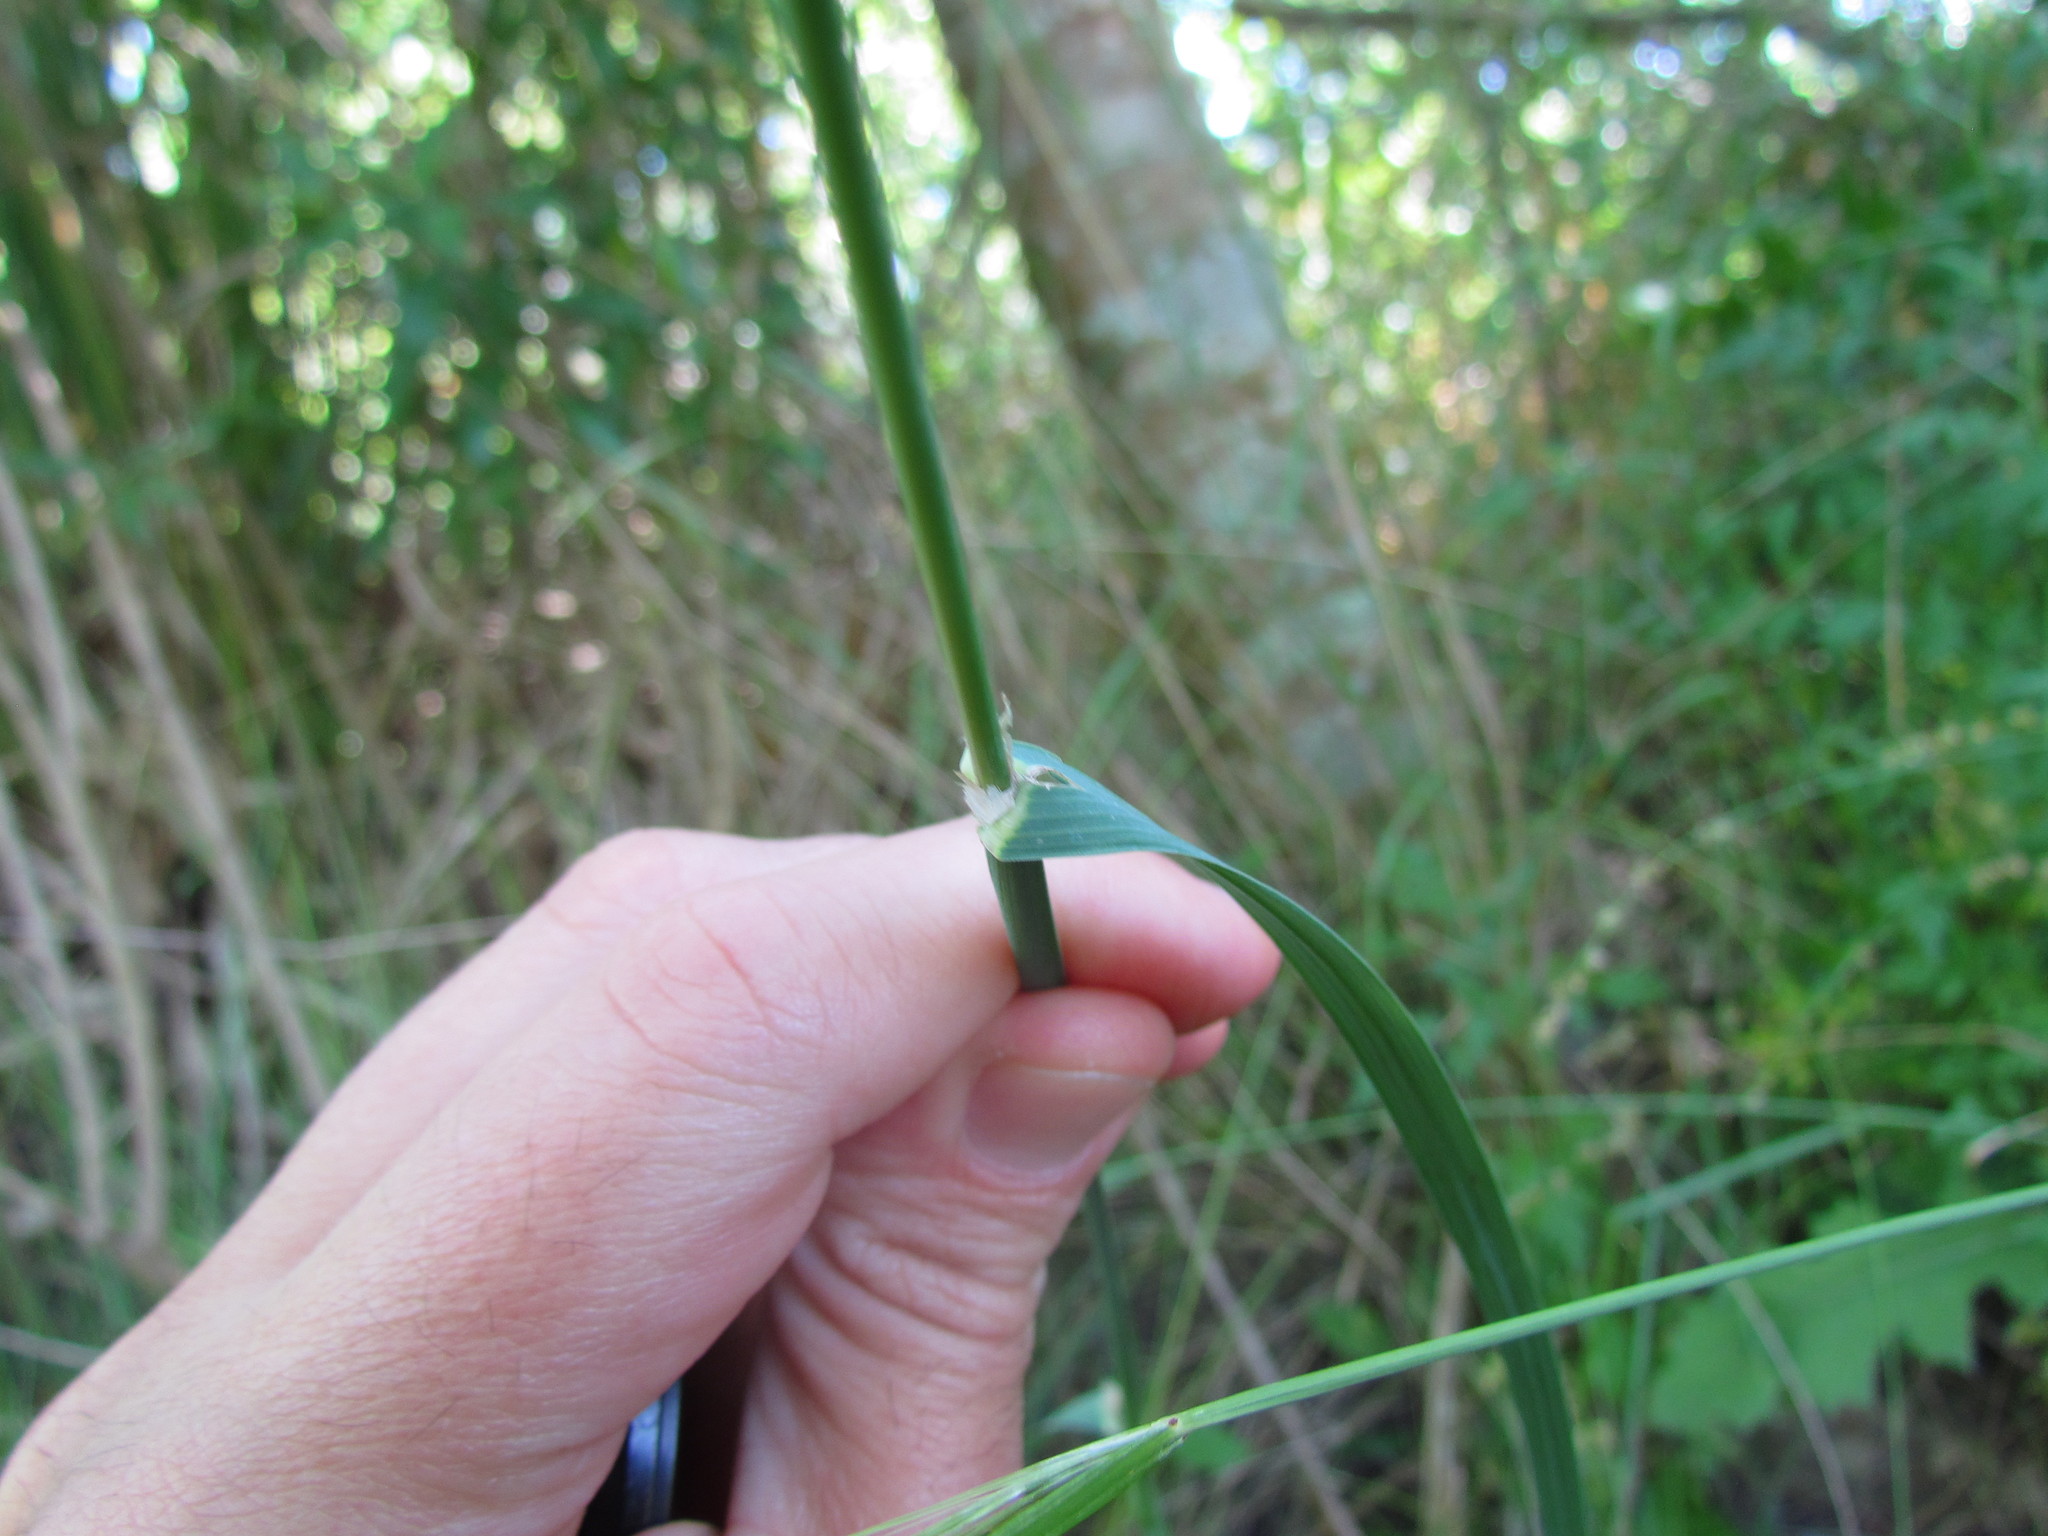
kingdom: Plantae
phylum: Tracheophyta
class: Liliopsida
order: Poales
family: Poaceae
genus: Dactylis
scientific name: Dactylis glomerata
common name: Orchardgrass
